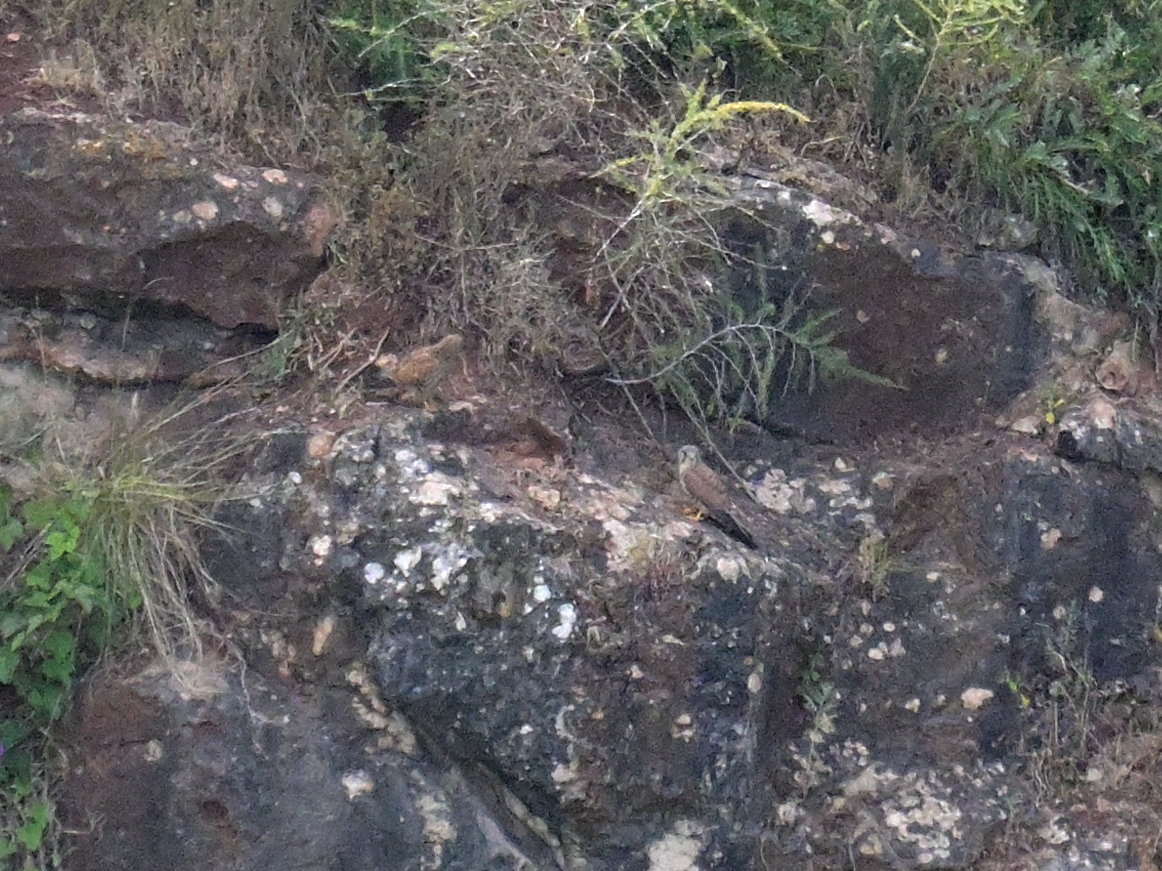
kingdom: Animalia
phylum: Chordata
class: Aves
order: Falconiformes
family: Falconidae
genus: Falco
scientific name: Falco tinnunculus
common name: Common kestrel
